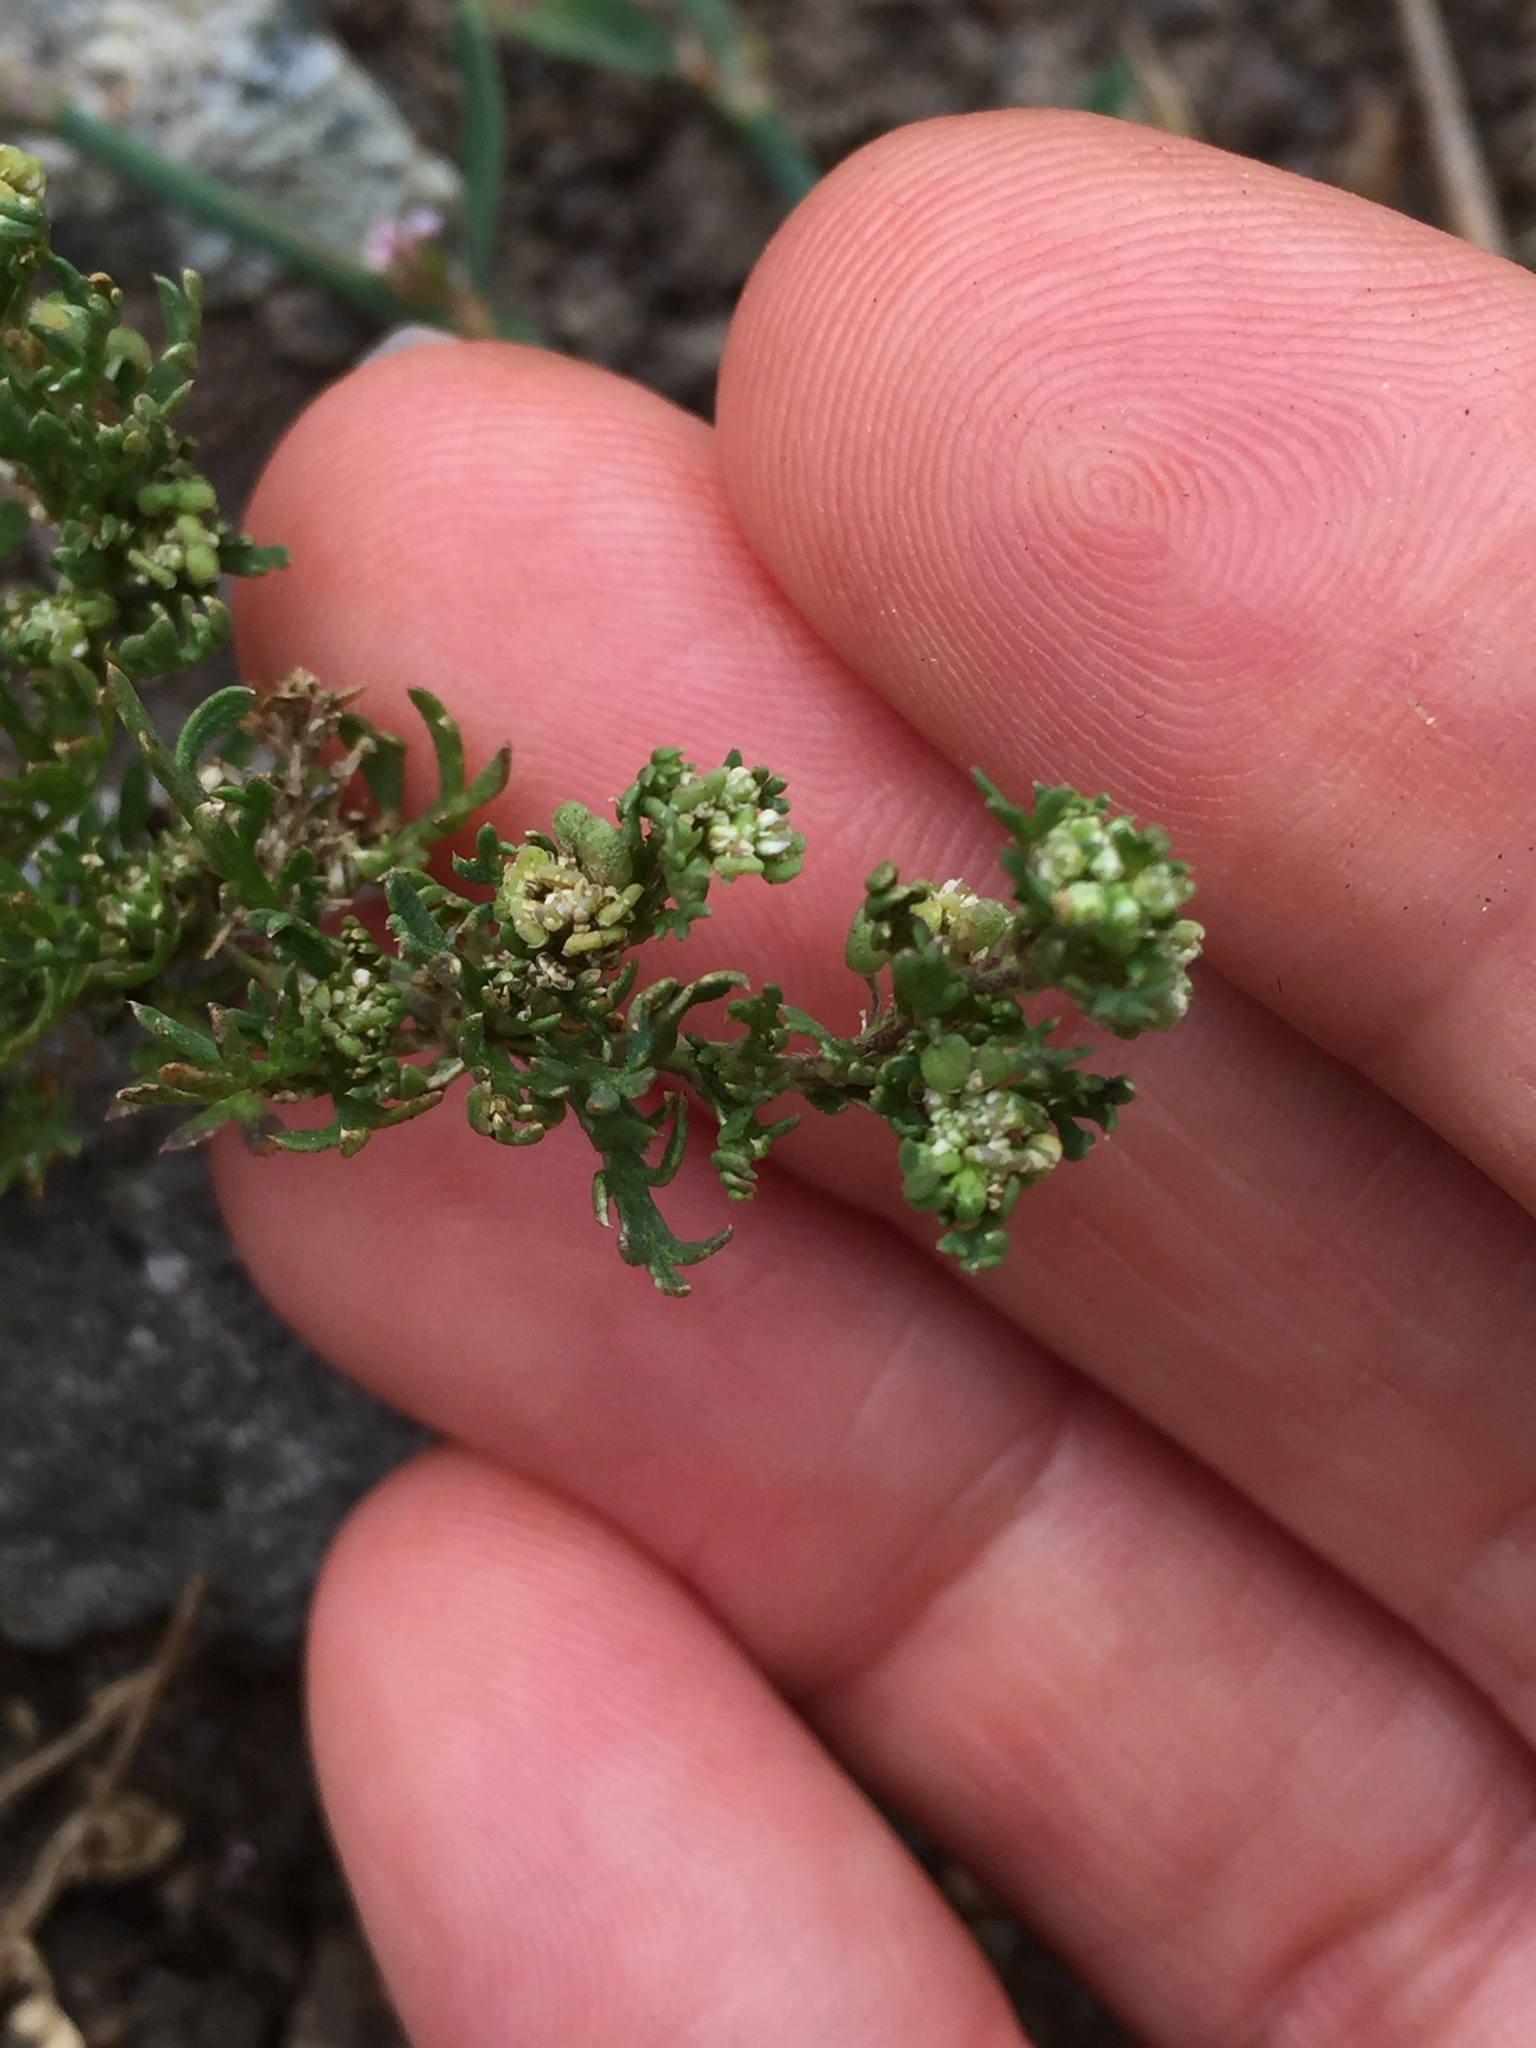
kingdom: Plantae
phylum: Tracheophyta
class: Magnoliopsida
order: Brassicales
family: Brassicaceae
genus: Lepidium
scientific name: Lepidium didymum
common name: Lesser swinecress
